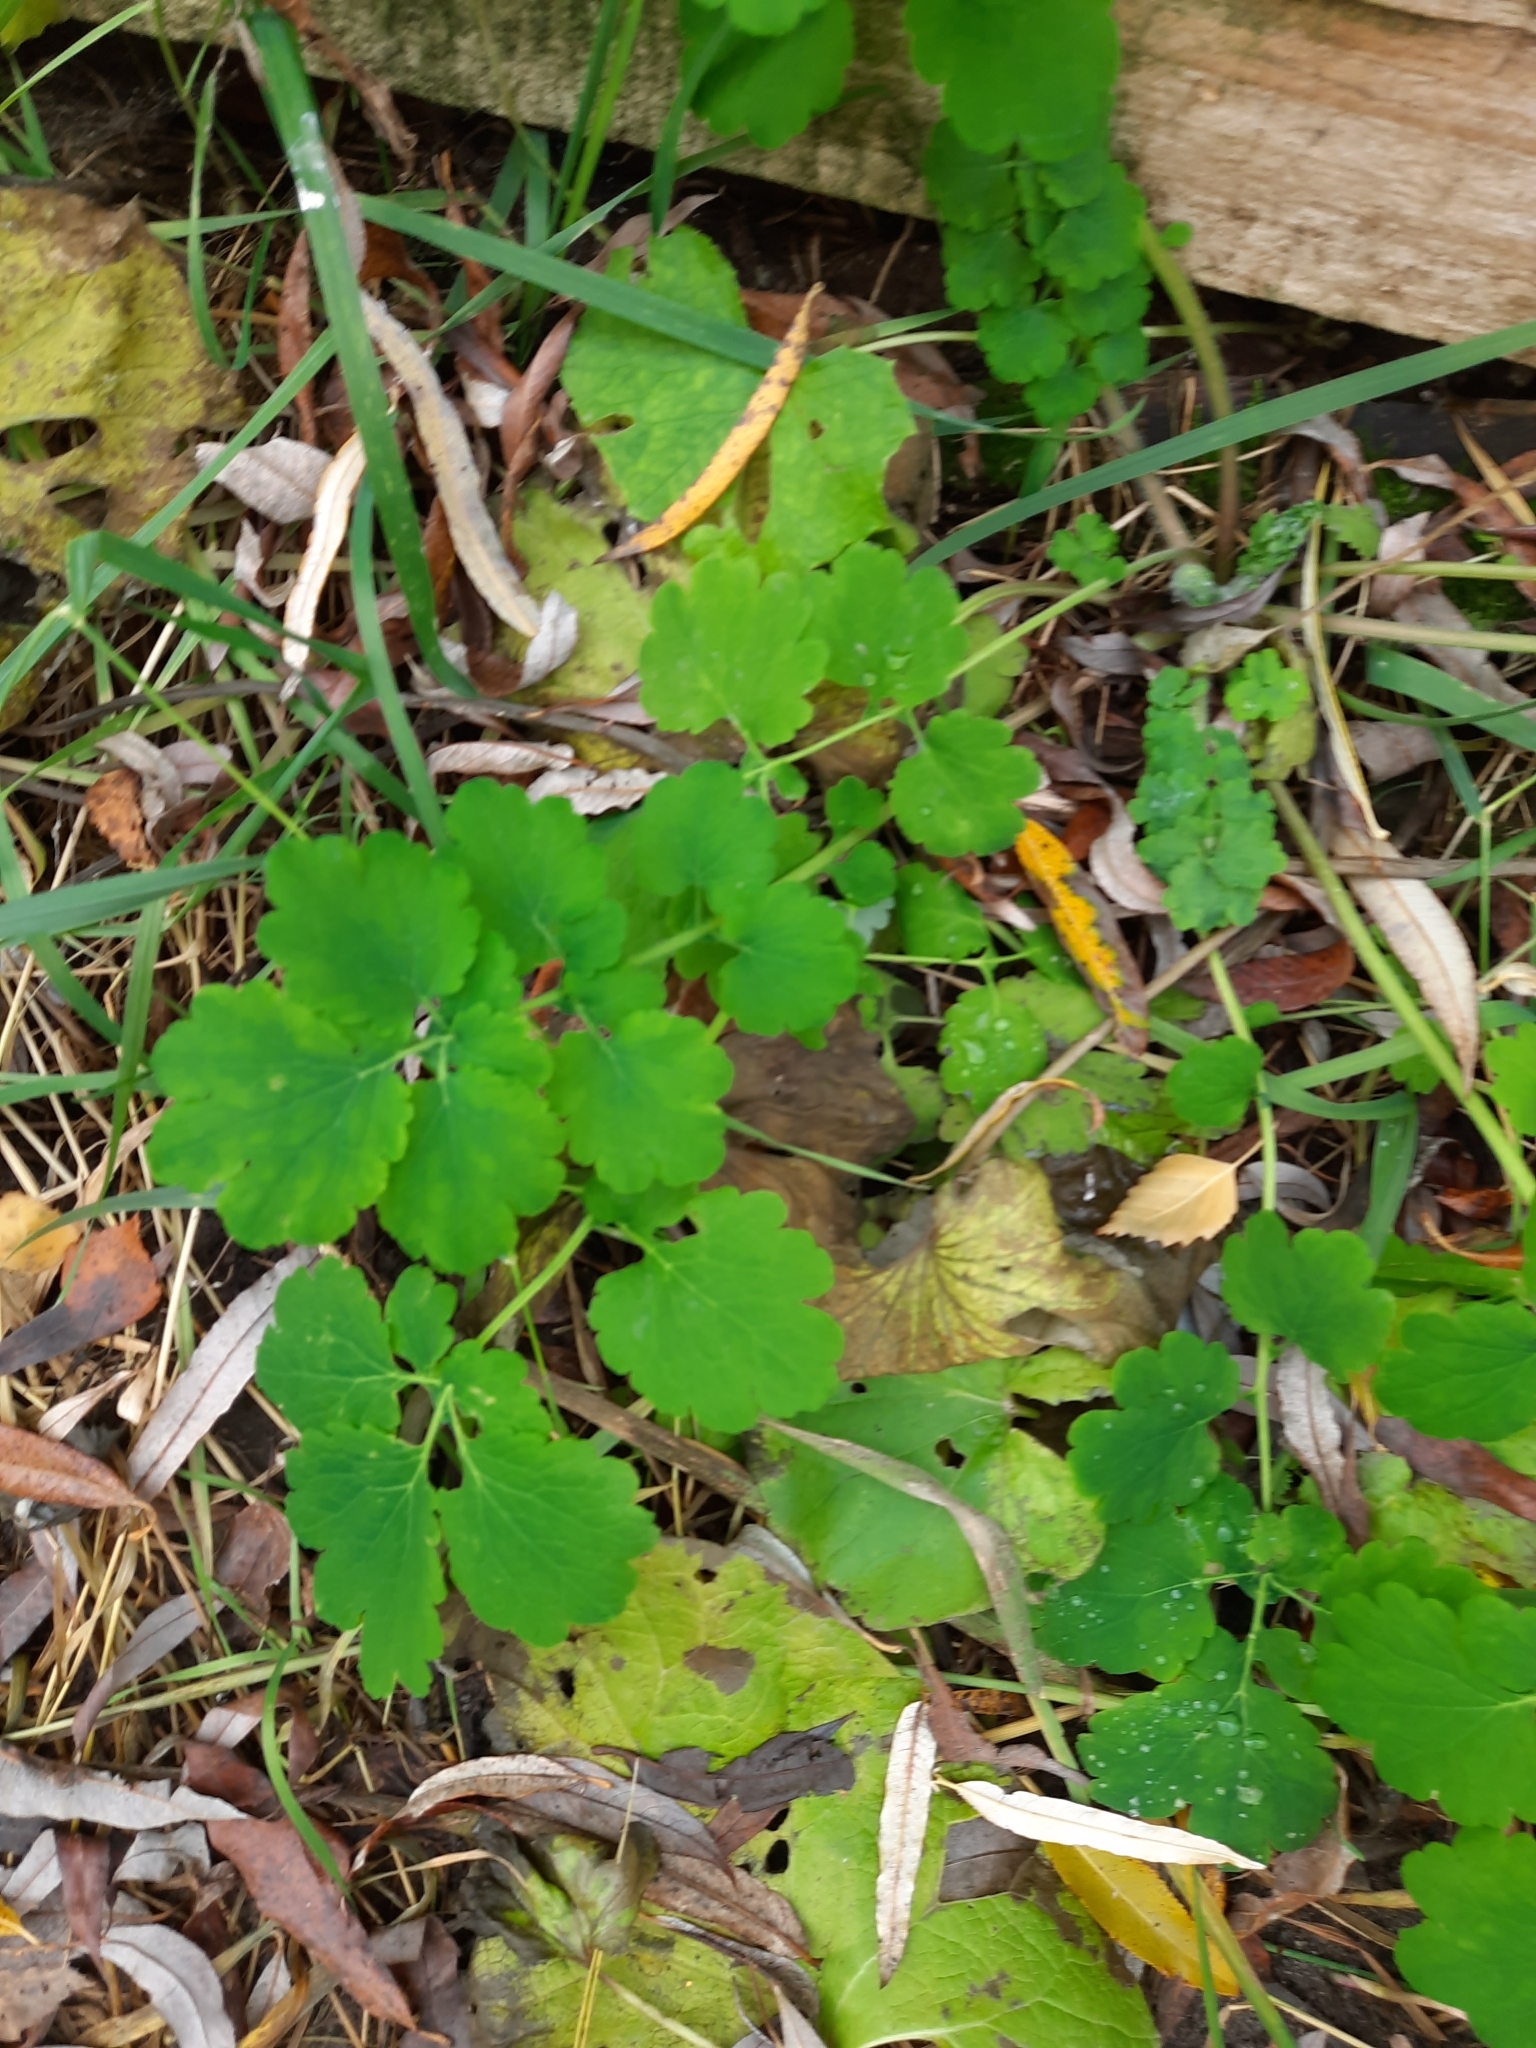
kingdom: Plantae
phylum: Tracheophyta
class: Magnoliopsida
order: Ranunculales
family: Papaveraceae
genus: Chelidonium
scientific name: Chelidonium majus
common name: Greater celandine
